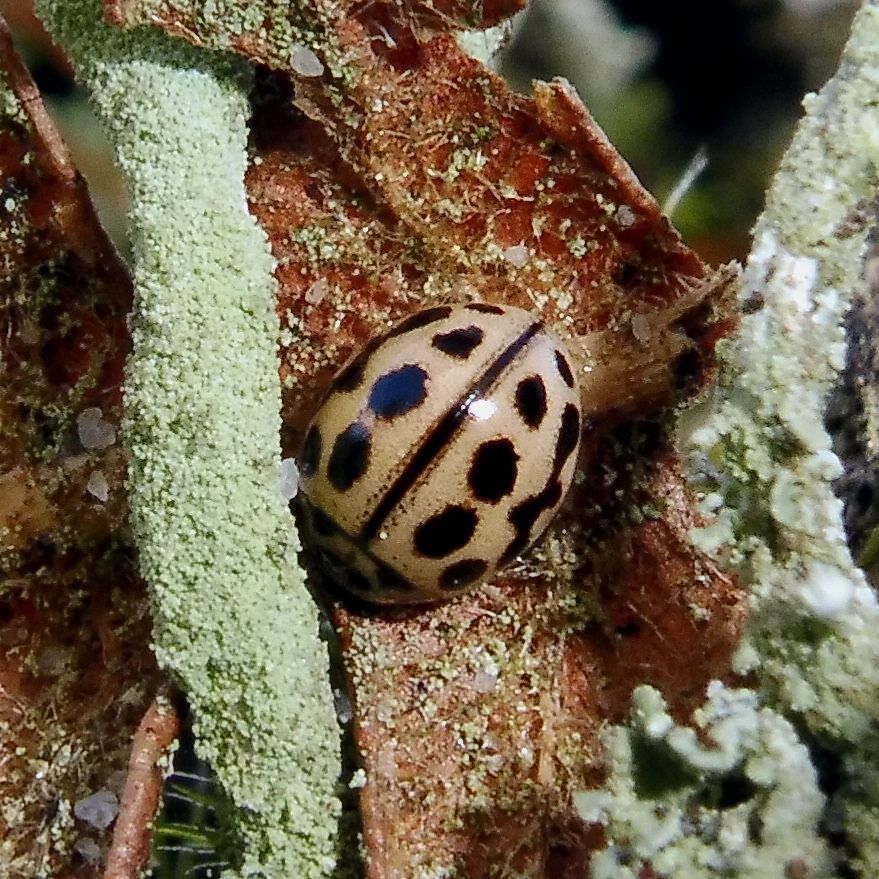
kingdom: Animalia
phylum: Arthropoda
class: Insecta
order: Coleoptera
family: Coccinellidae
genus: Tytthaspis
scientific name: Tytthaspis sedecimpunctata
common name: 16-spot ladybird
